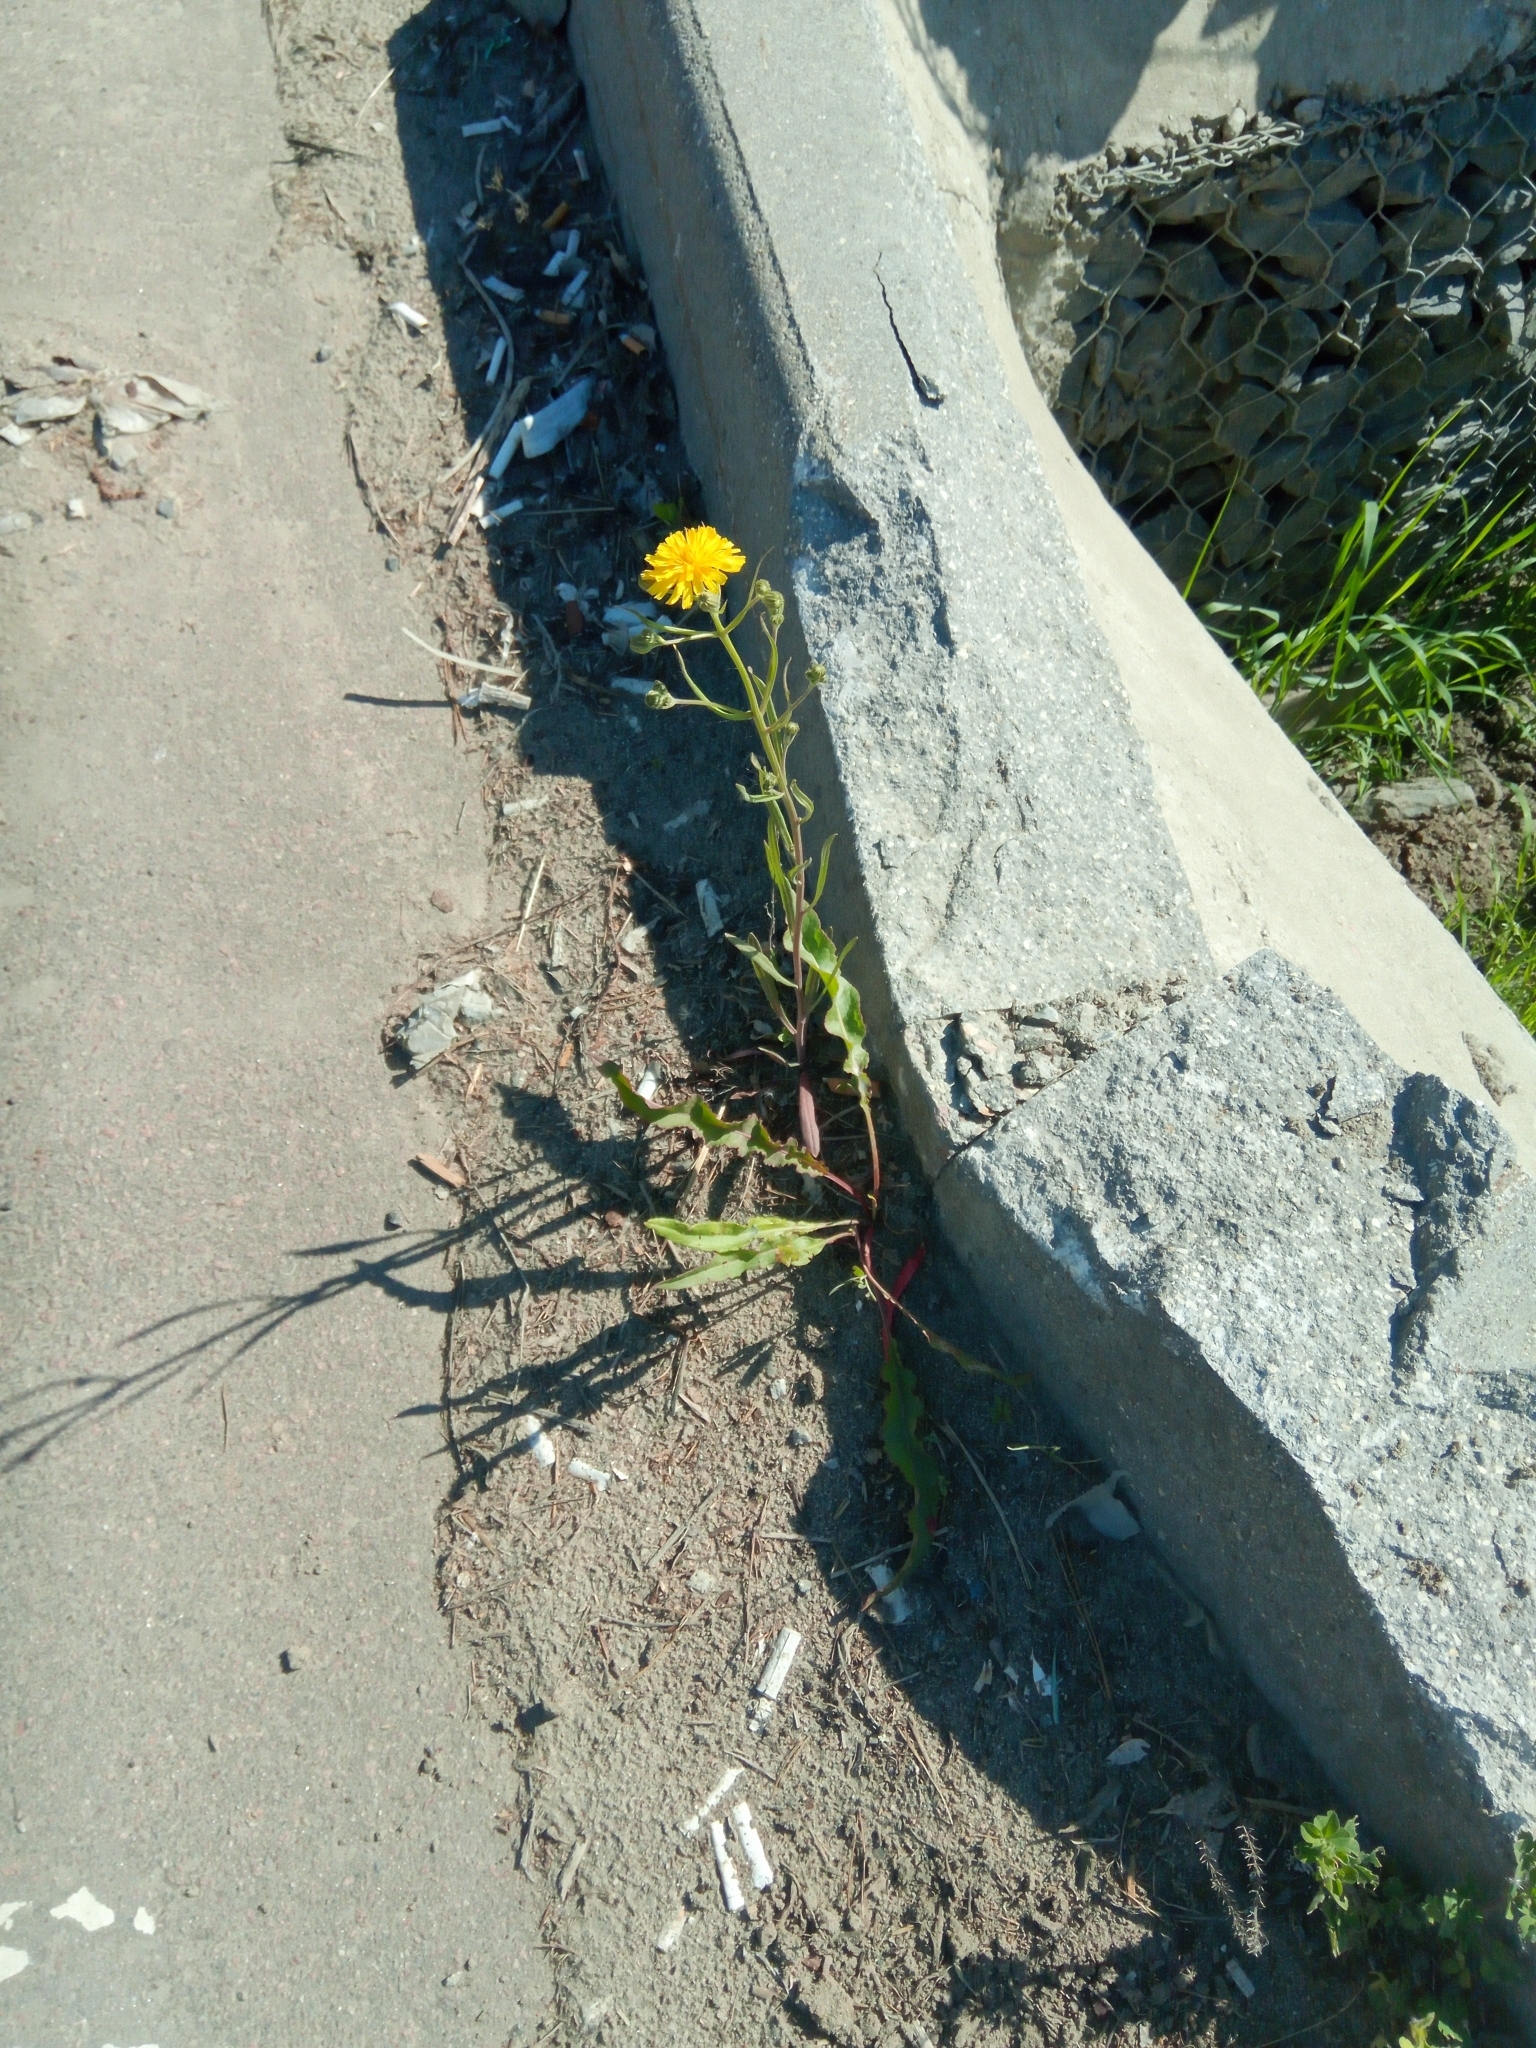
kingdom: Plantae
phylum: Tracheophyta
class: Magnoliopsida
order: Asterales
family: Asteraceae
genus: Crepis
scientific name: Crepis tectorum
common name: Narrow-leaved hawk's-beard
